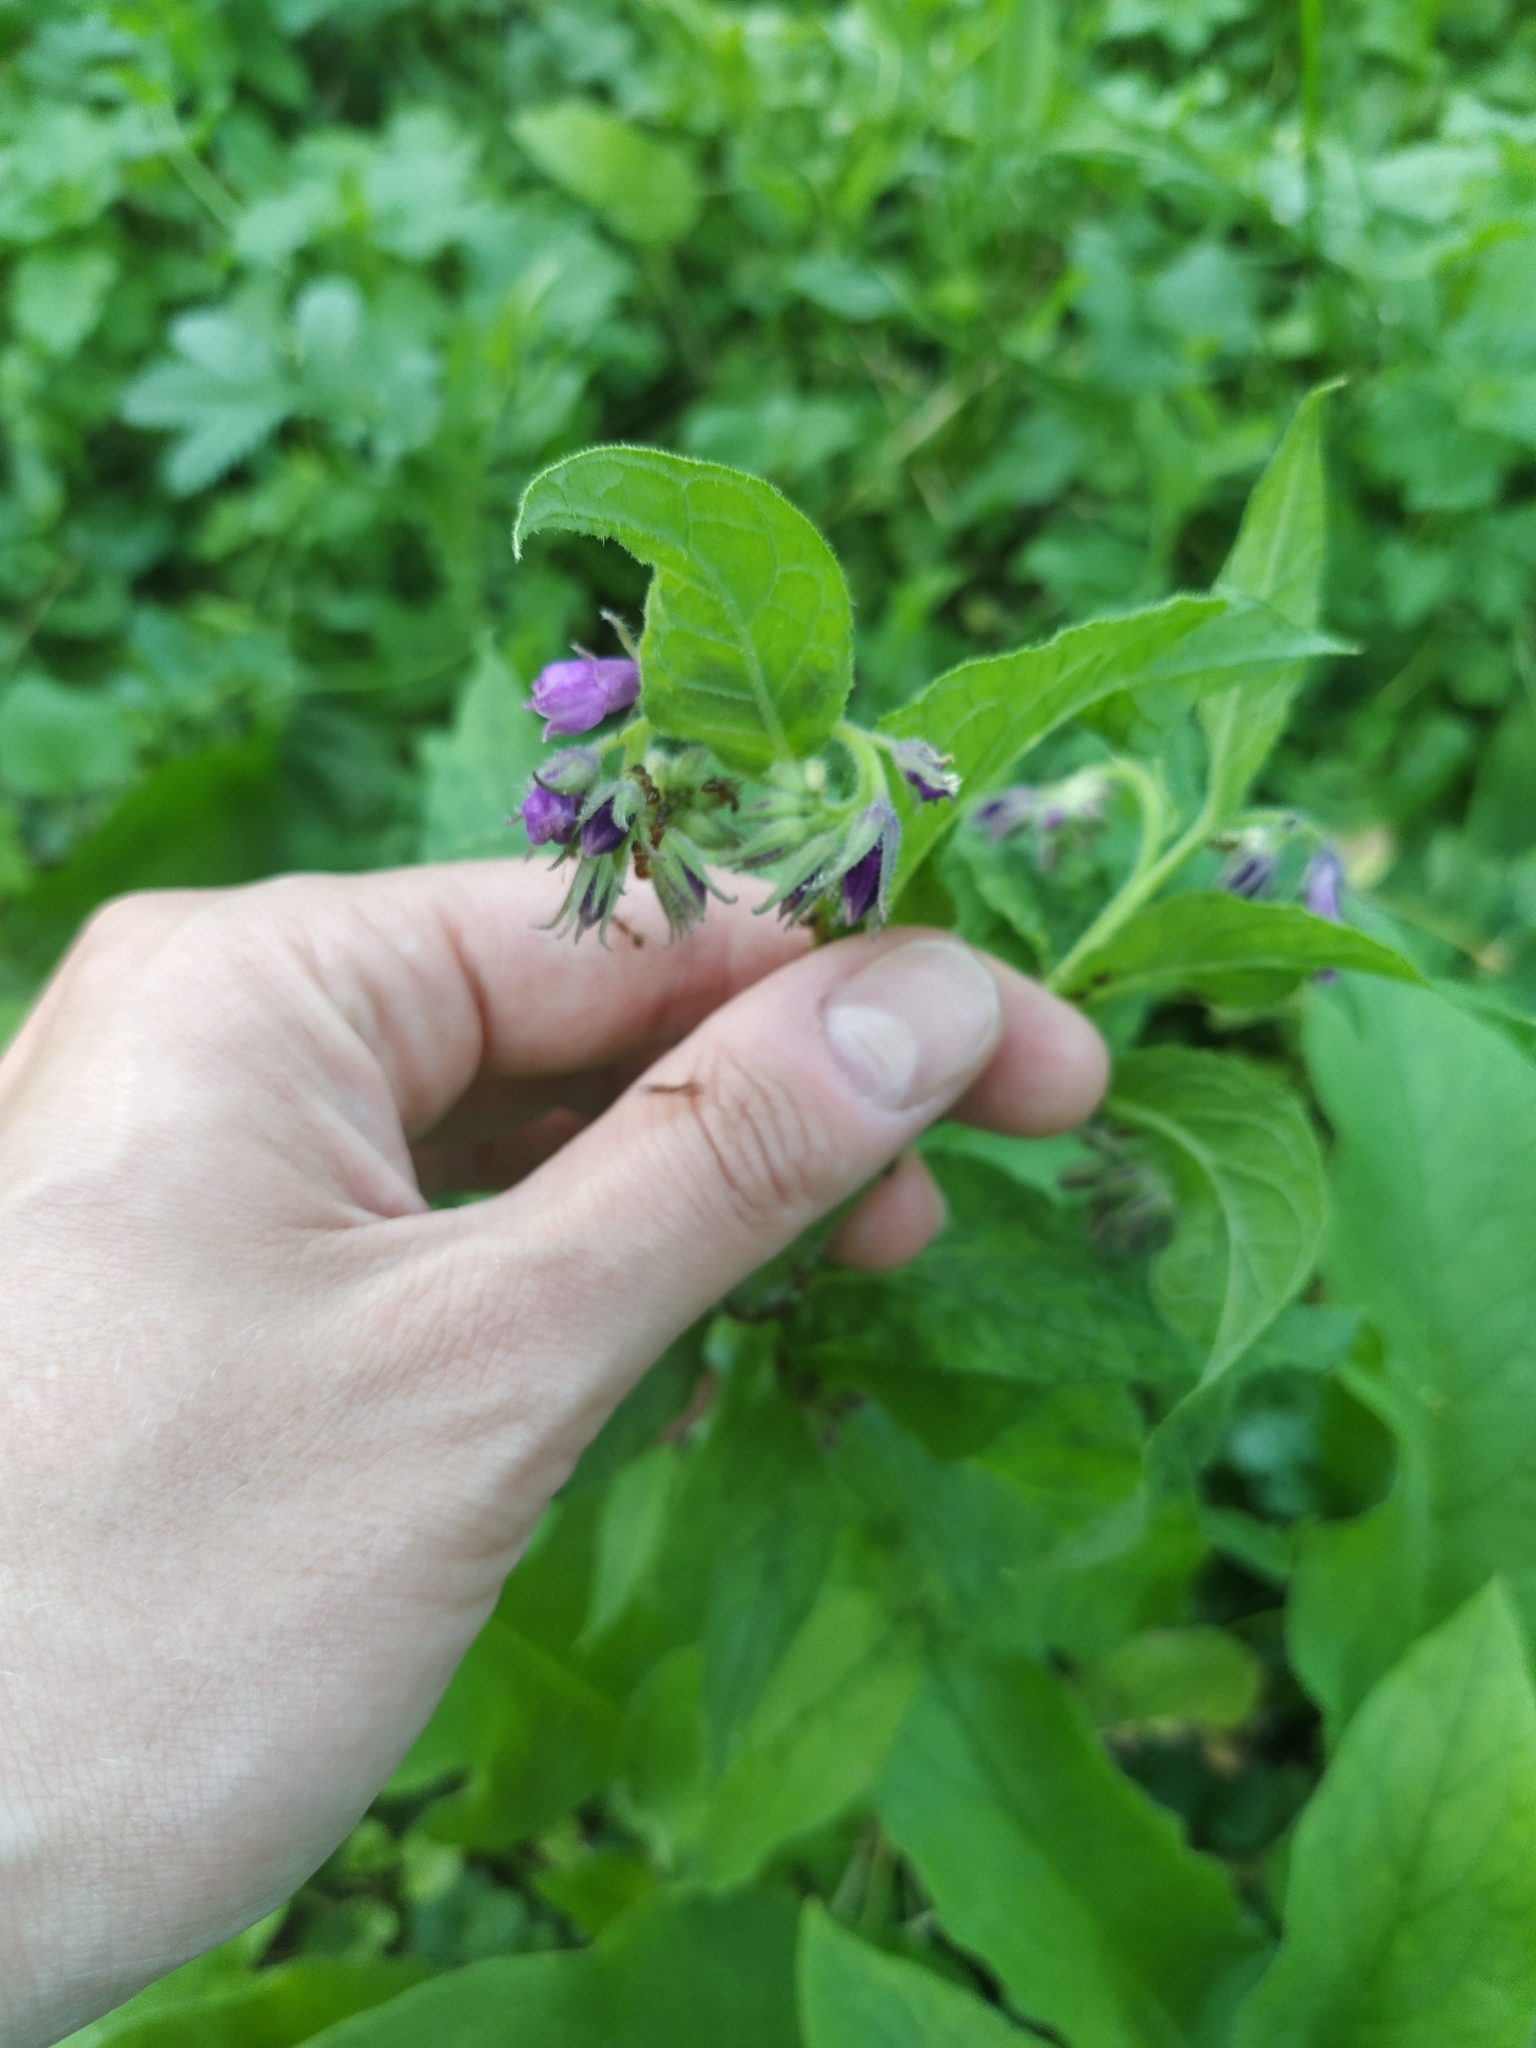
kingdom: Plantae
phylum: Tracheophyta
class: Magnoliopsida
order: Boraginales
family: Boraginaceae
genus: Symphytum
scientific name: Symphytum officinale
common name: Common comfrey
